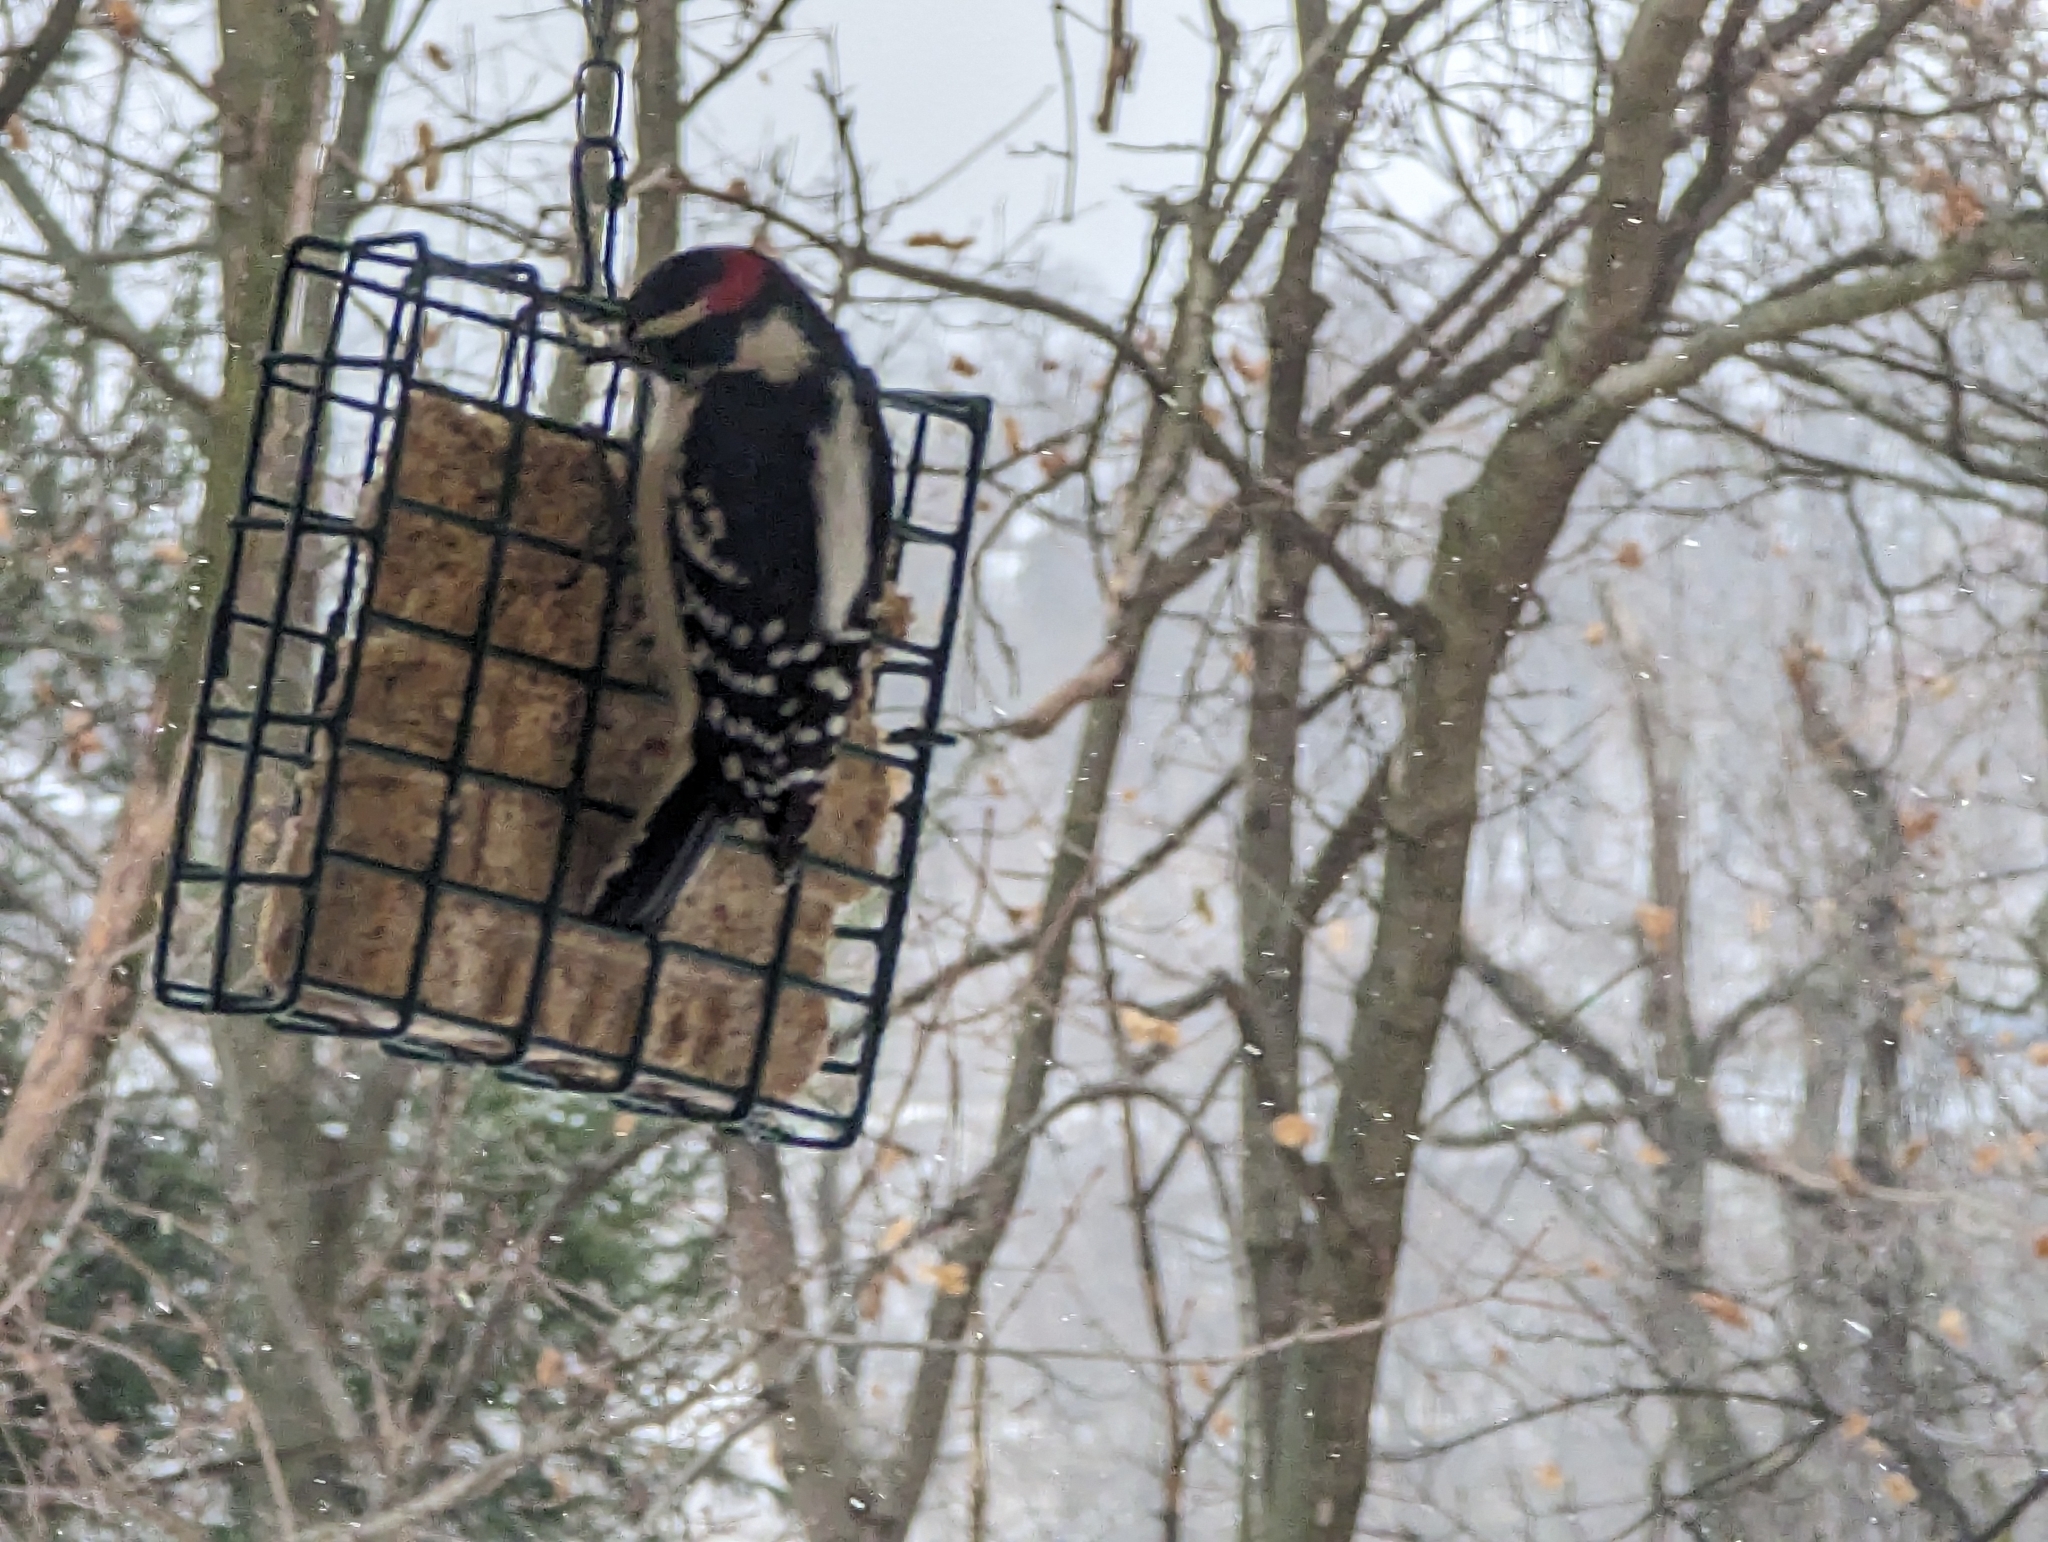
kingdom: Animalia
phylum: Chordata
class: Aves
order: Piciformes
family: Picidae
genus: Dryobates
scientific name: Dryobates pubescens
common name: Downy woodpecker
